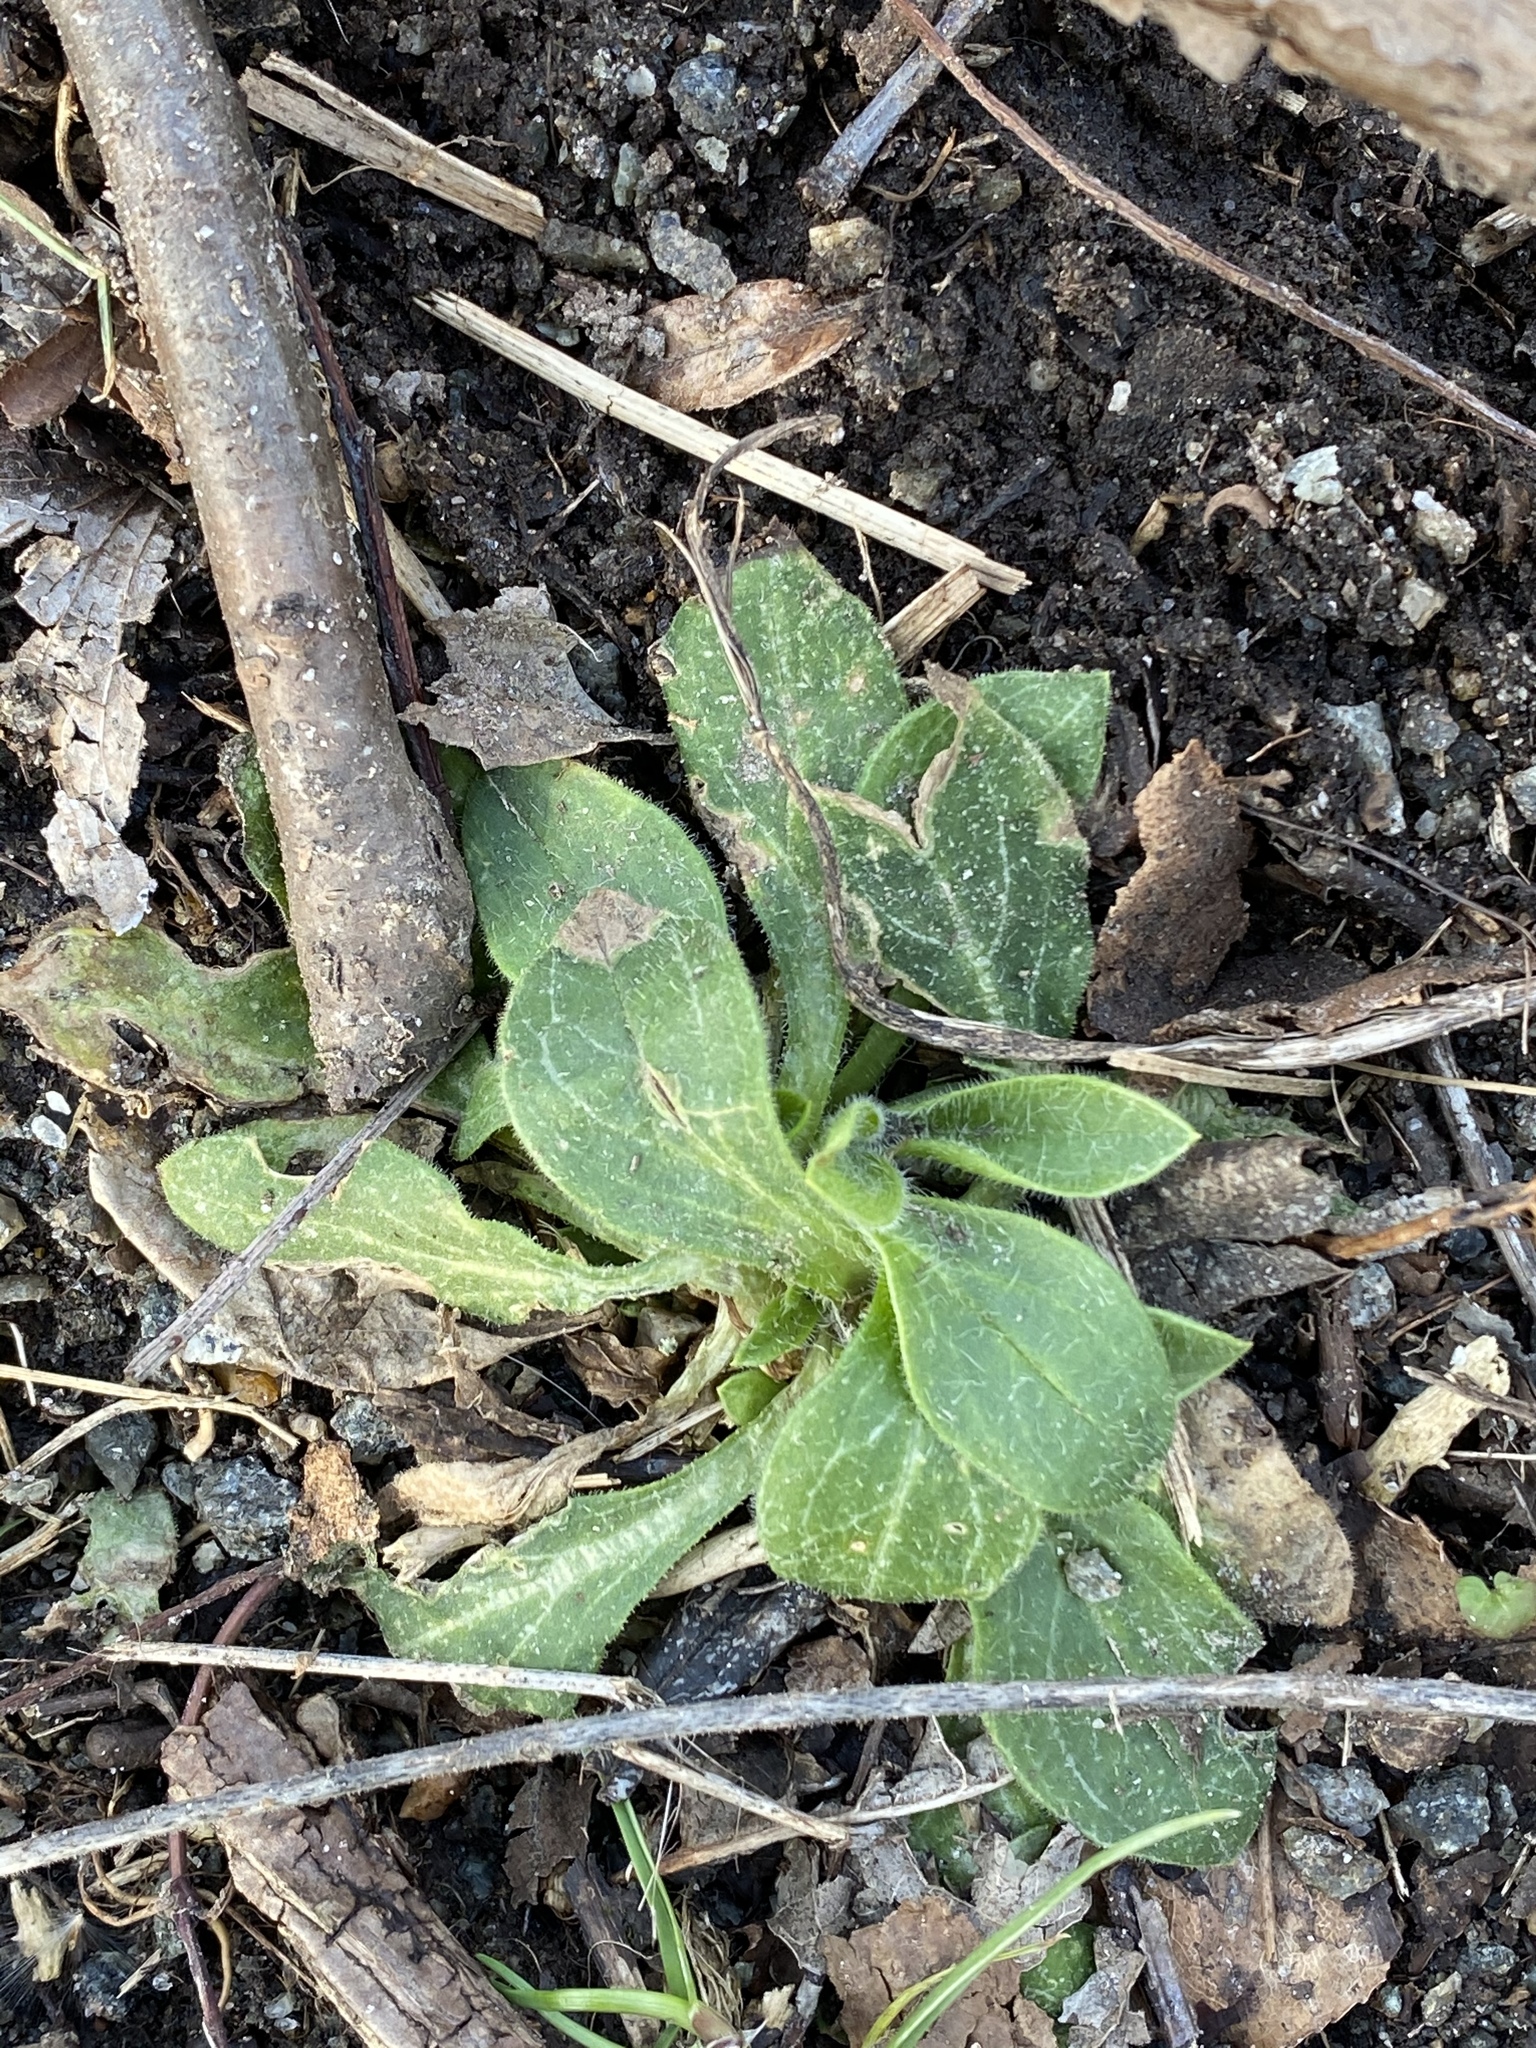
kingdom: Plantae
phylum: Tracheophyta
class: Magnoliopsida
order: Caryophyllales
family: Caryophyllaceae
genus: Silene
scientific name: Silene latifolia
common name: White campion
